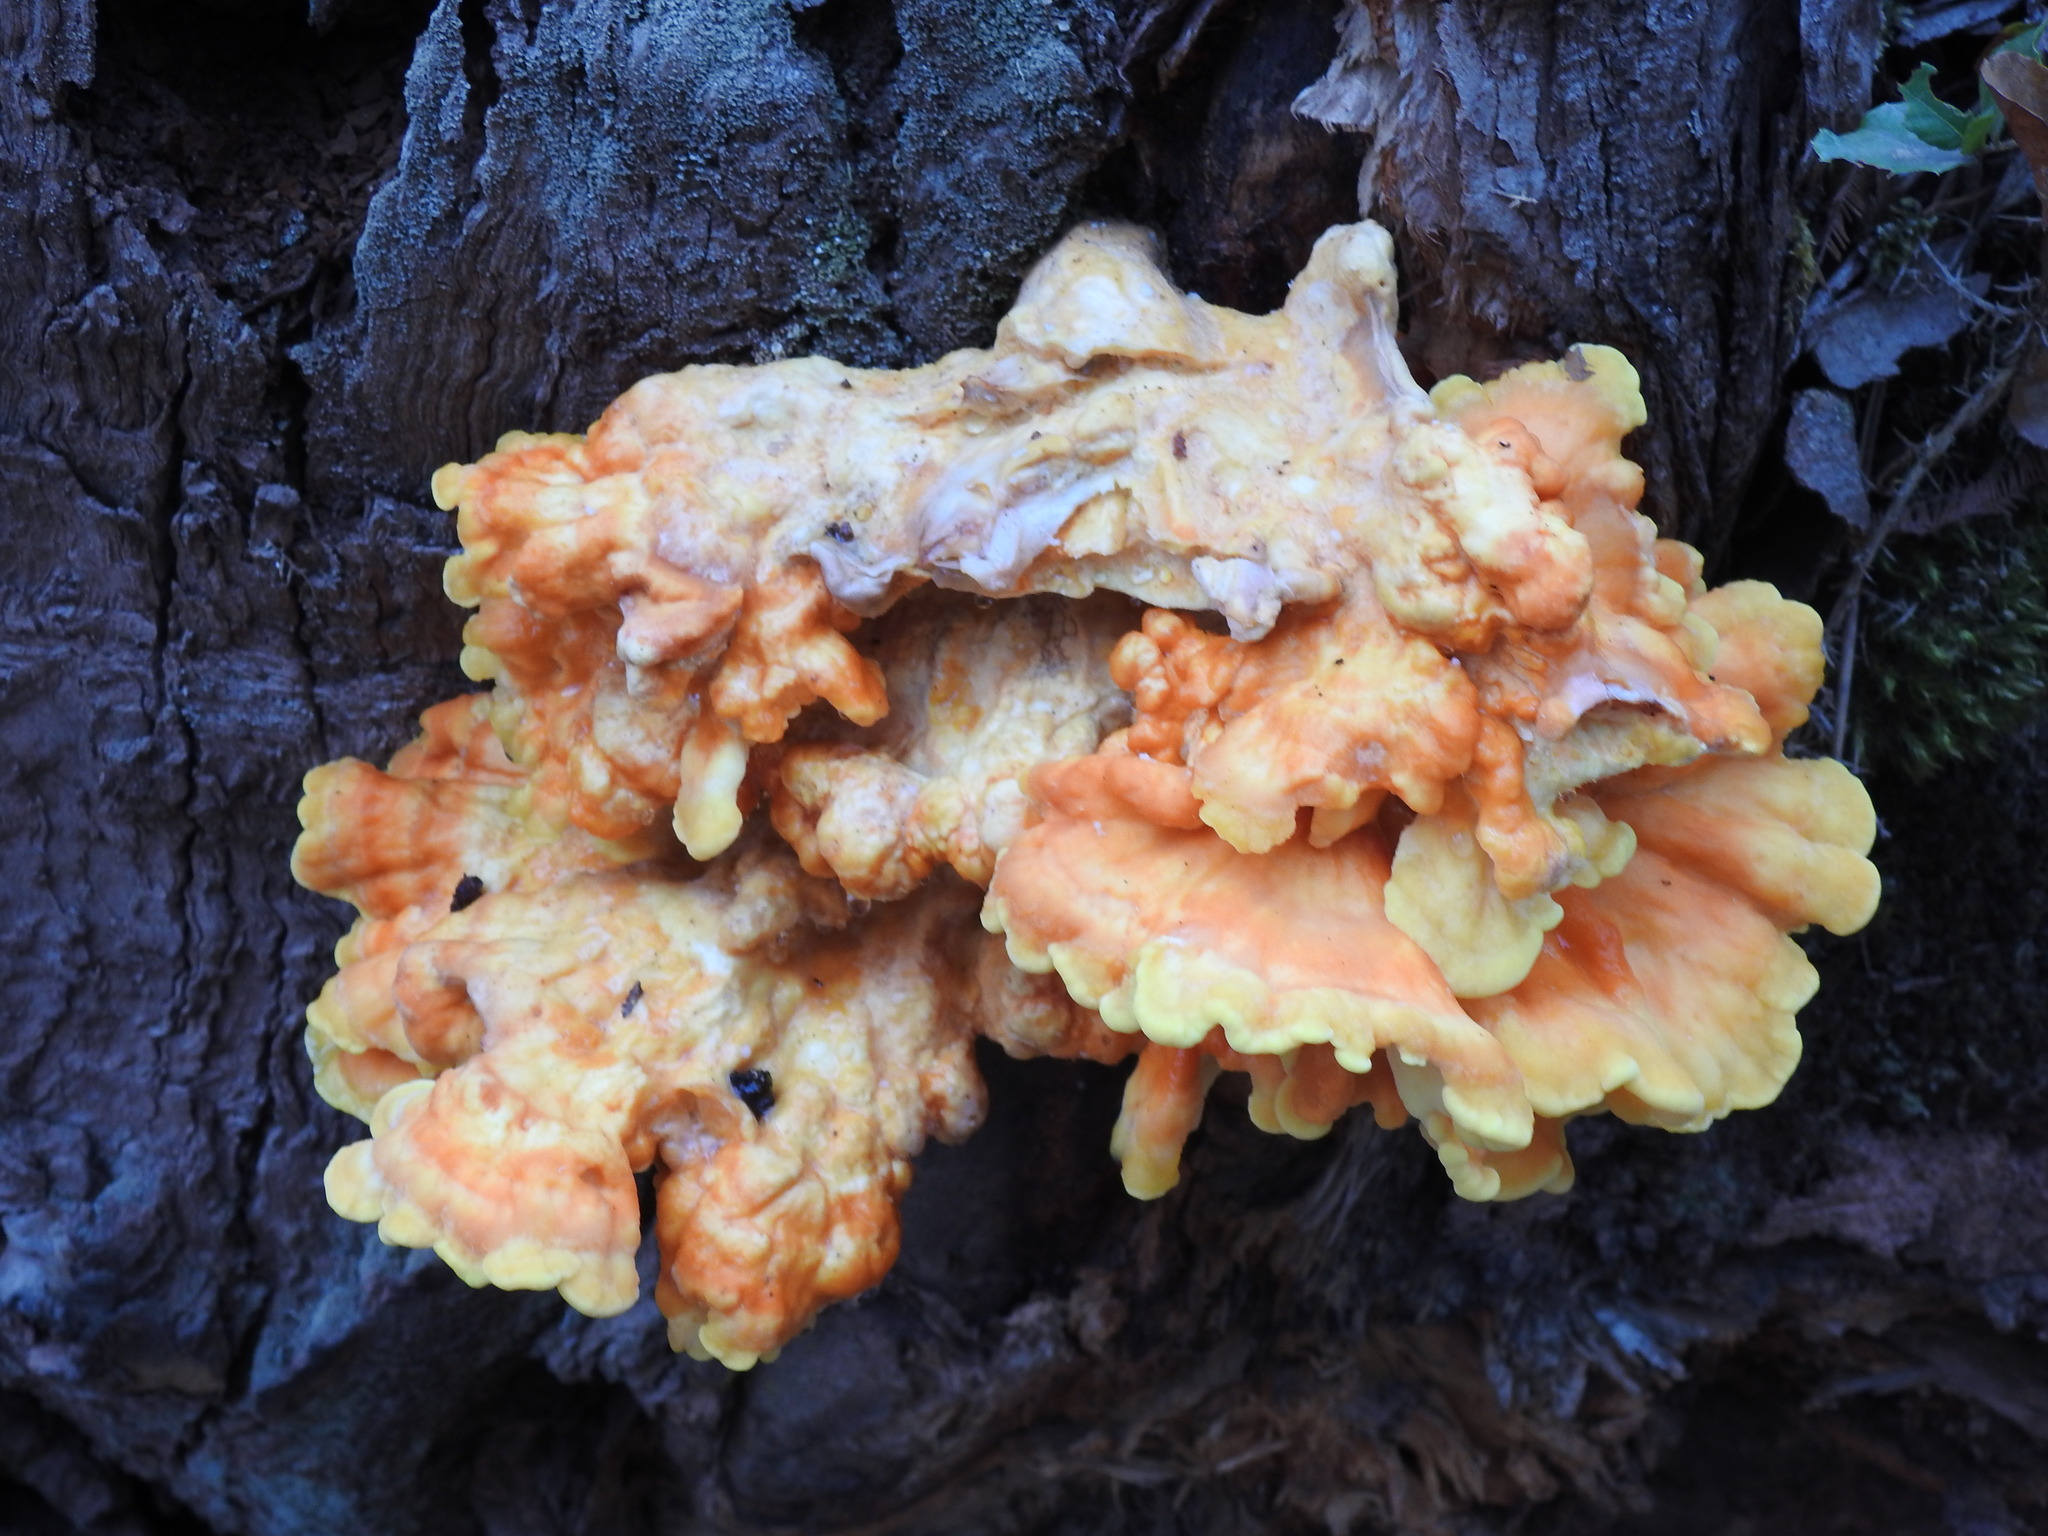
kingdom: Fungi
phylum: Basidiomycota
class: Agaricomycetes
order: Polyporales
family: Laetiporaceae
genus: Laetiporus
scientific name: Laetiporus sulphureus
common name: Chicken of the woods
